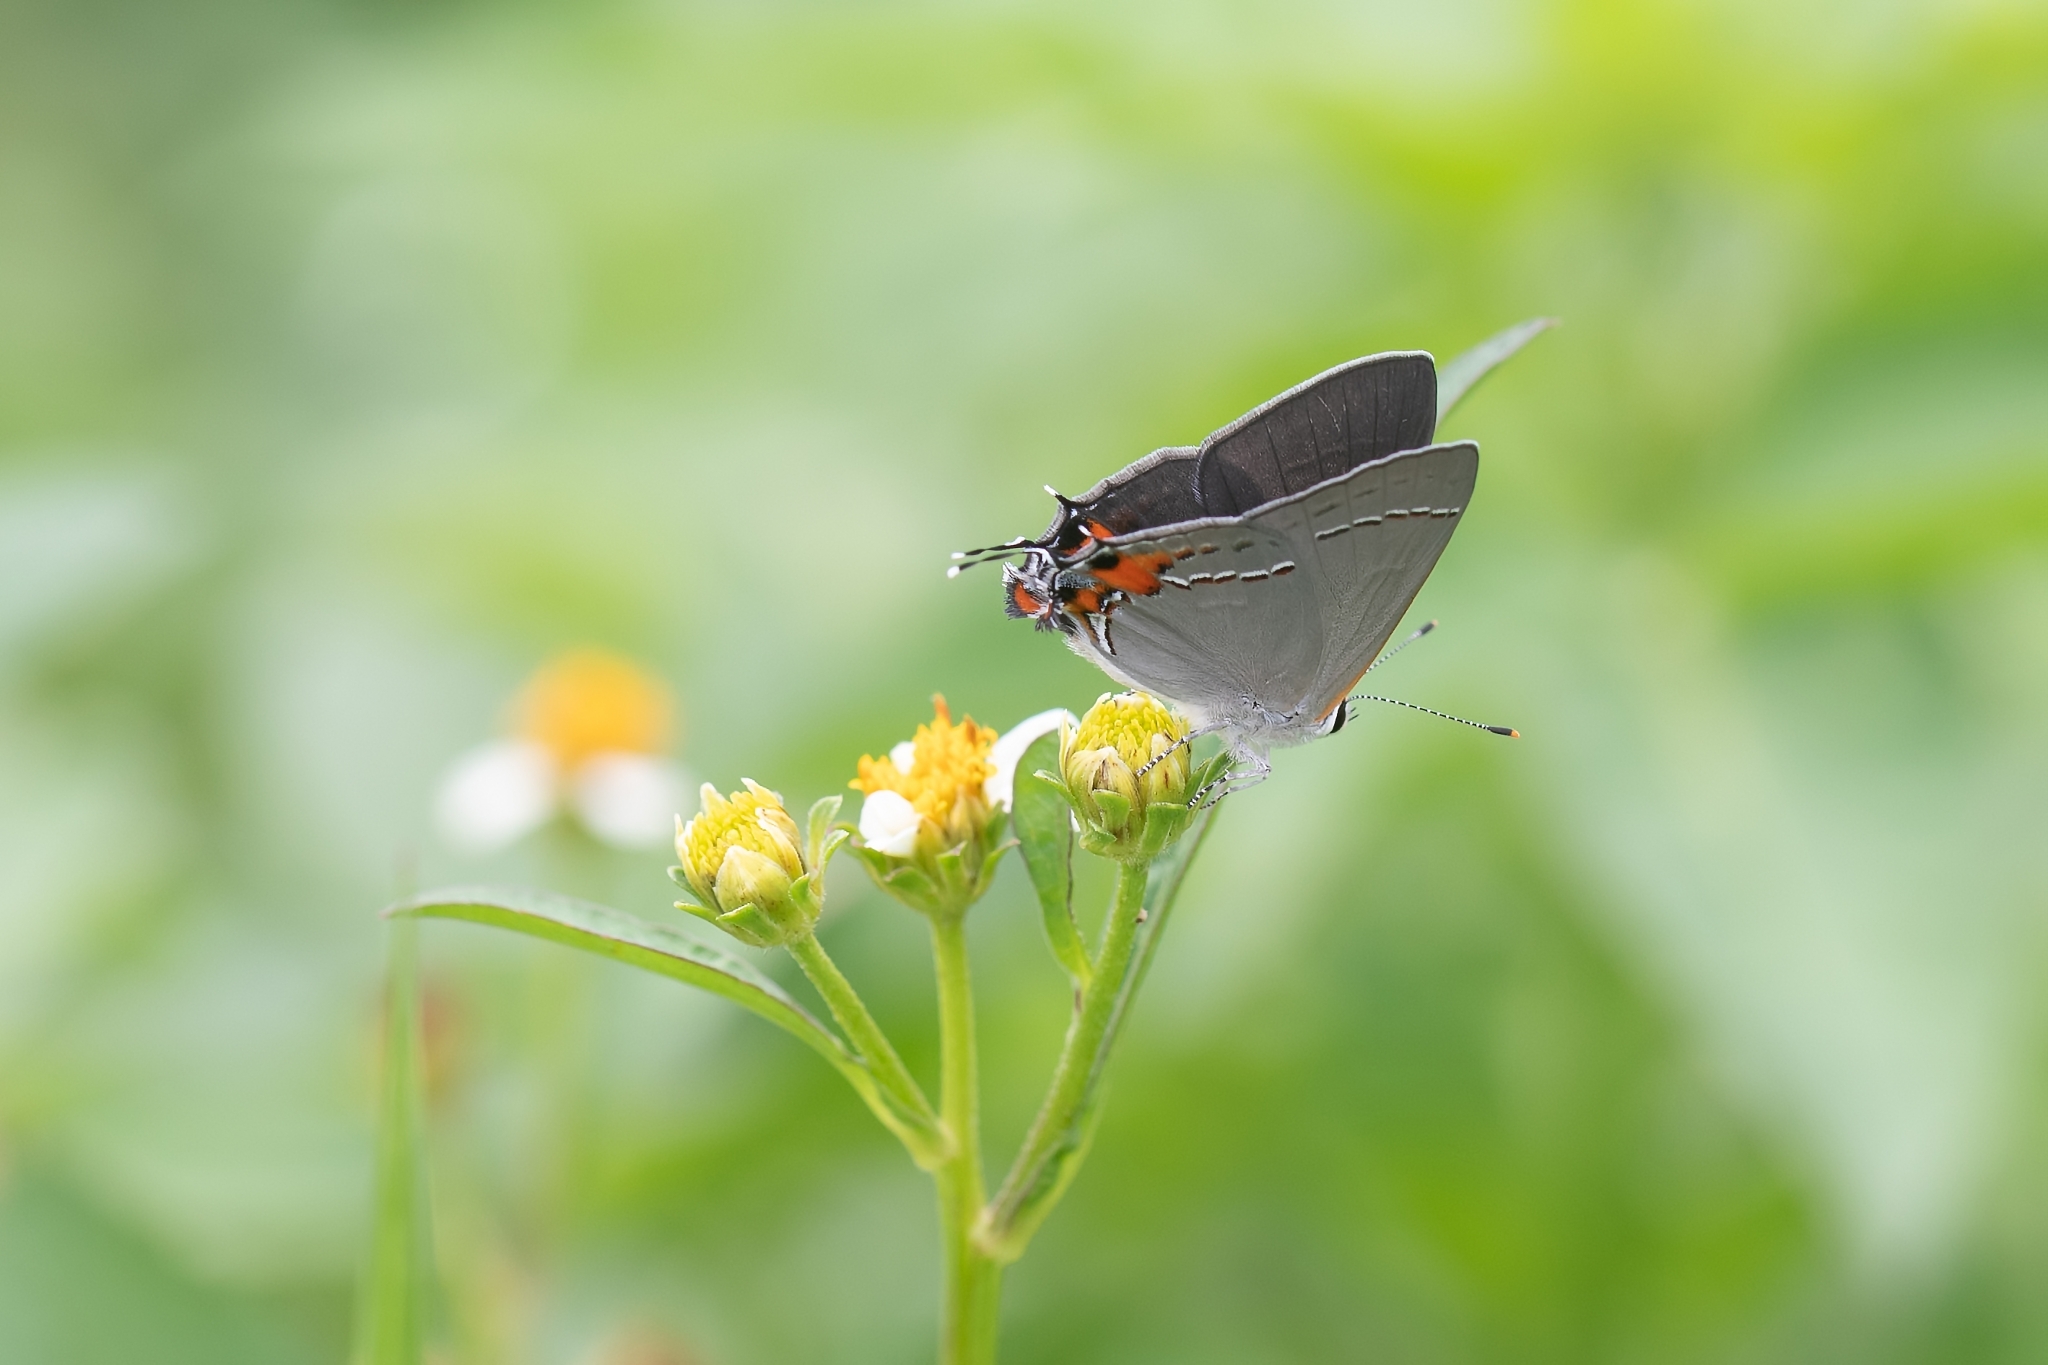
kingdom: Animalia
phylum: Arthropoda
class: Insecta
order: Lepidoptera
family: Lycaenidae
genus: Strymon
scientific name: Strymon melinus
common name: Gray hairstreak
